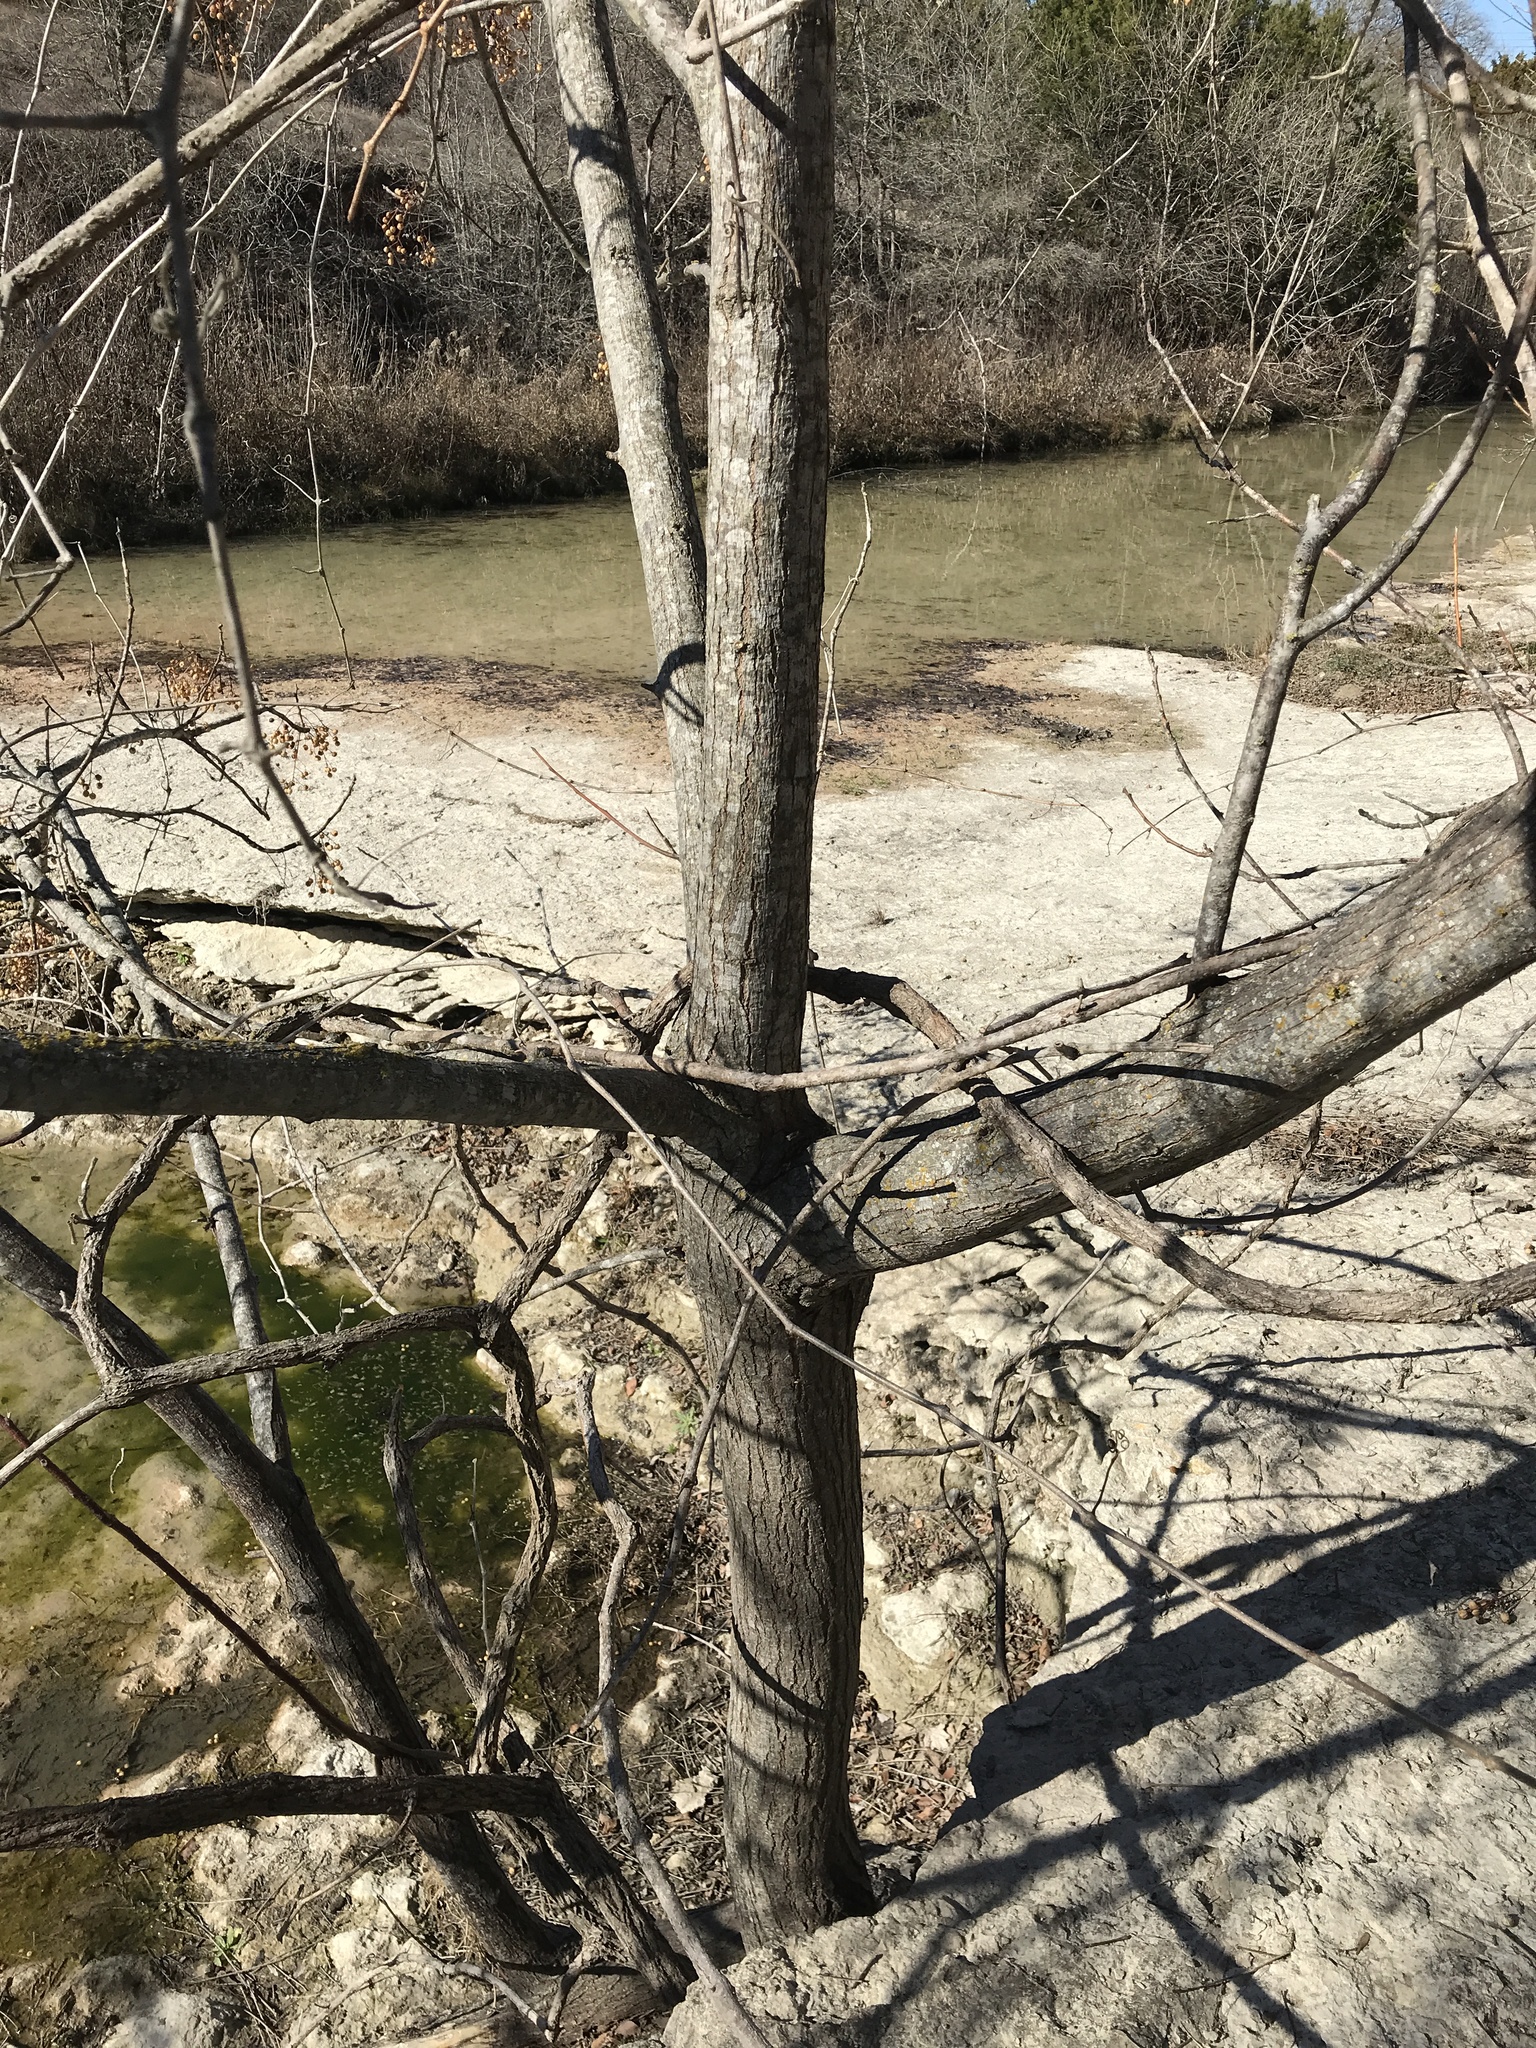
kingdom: Plantae
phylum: Tracheophyta
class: Magnoliopsida
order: Sapindales
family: Meliaceae
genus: Melia
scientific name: Melia azedarach
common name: Chinaberrytree
